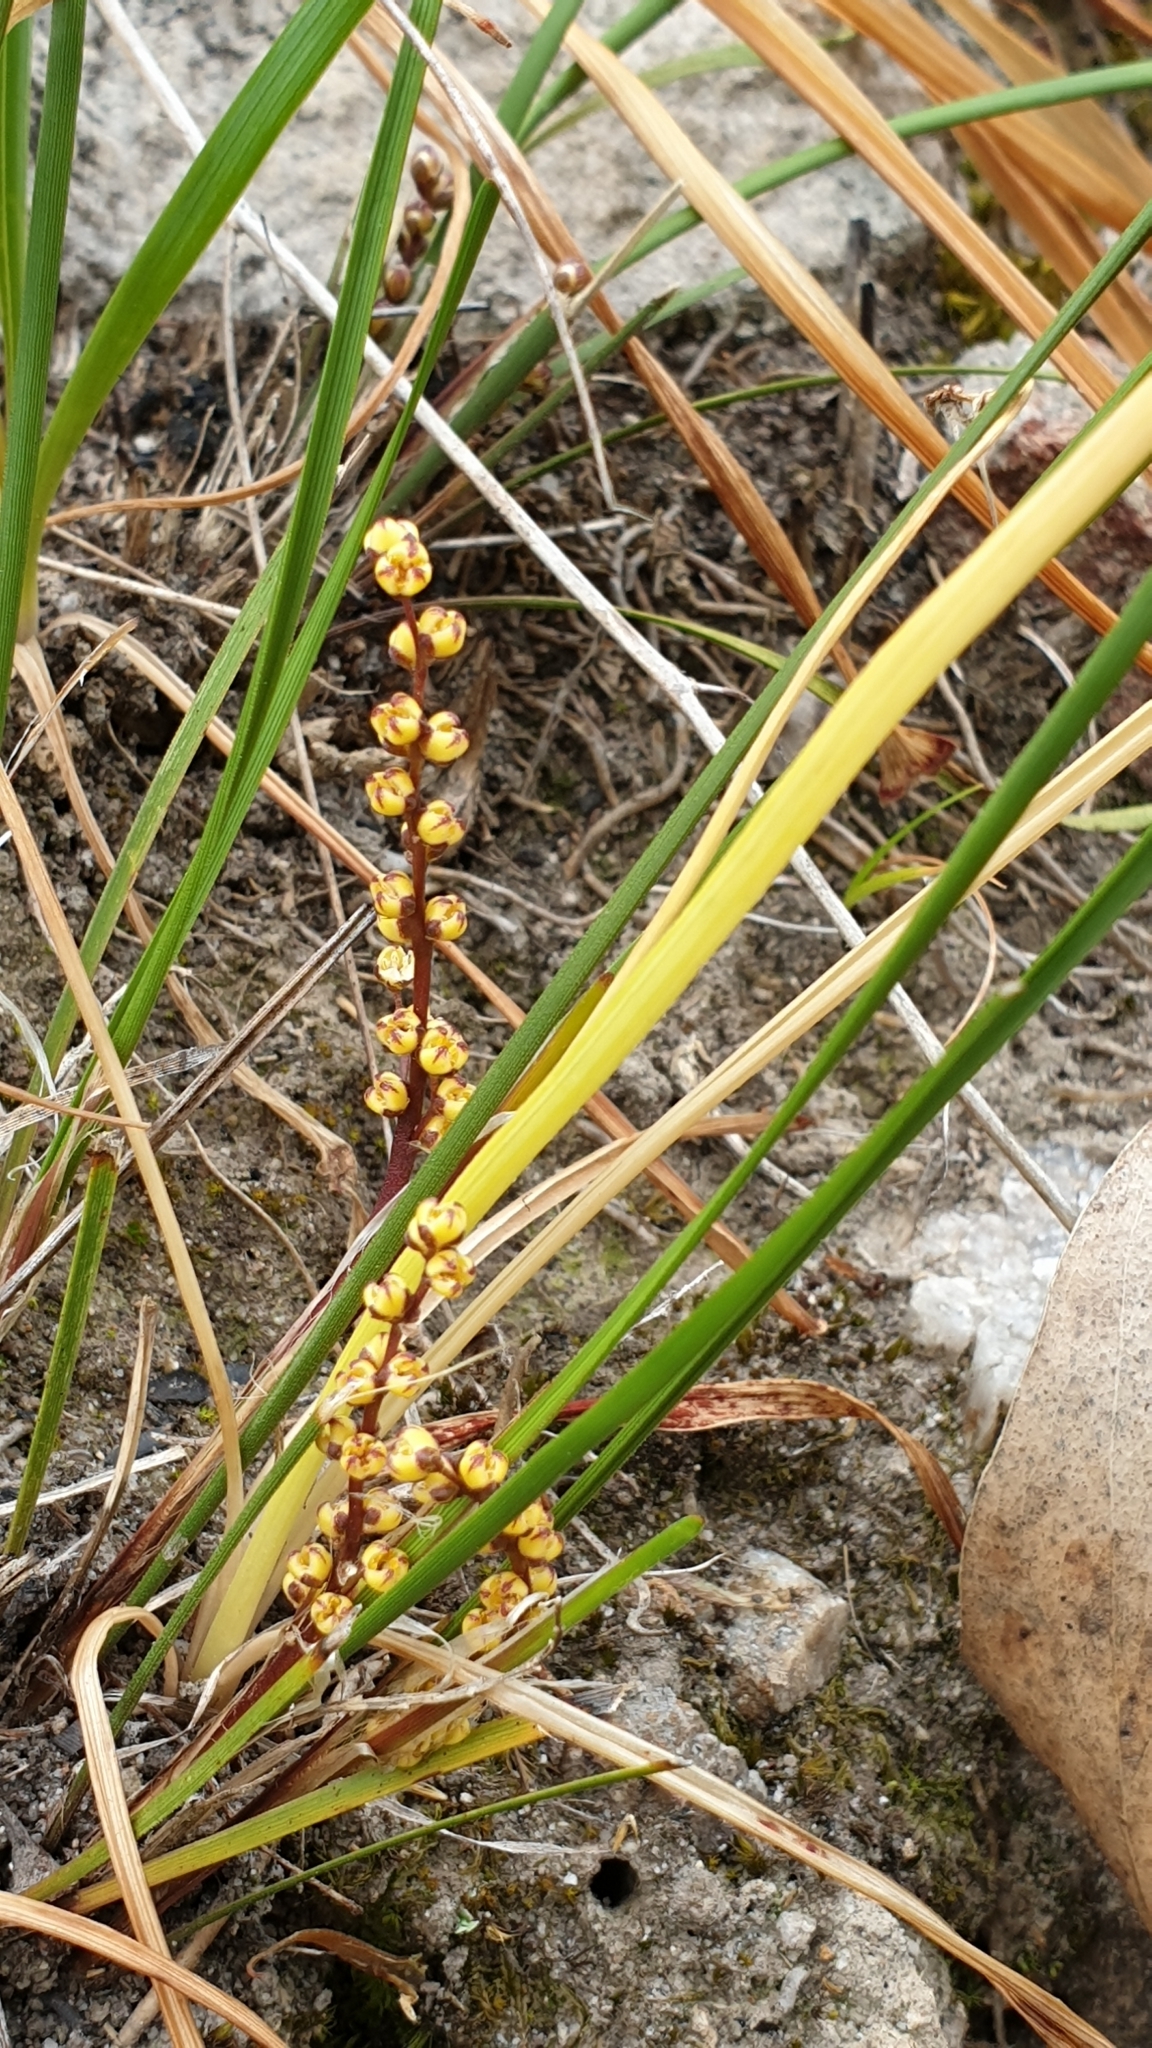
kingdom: Plantae
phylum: Tracheophyta
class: Liliopsida
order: Asparagales
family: Asparagaceae
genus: Lomandra
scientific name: Lomandra sororia
